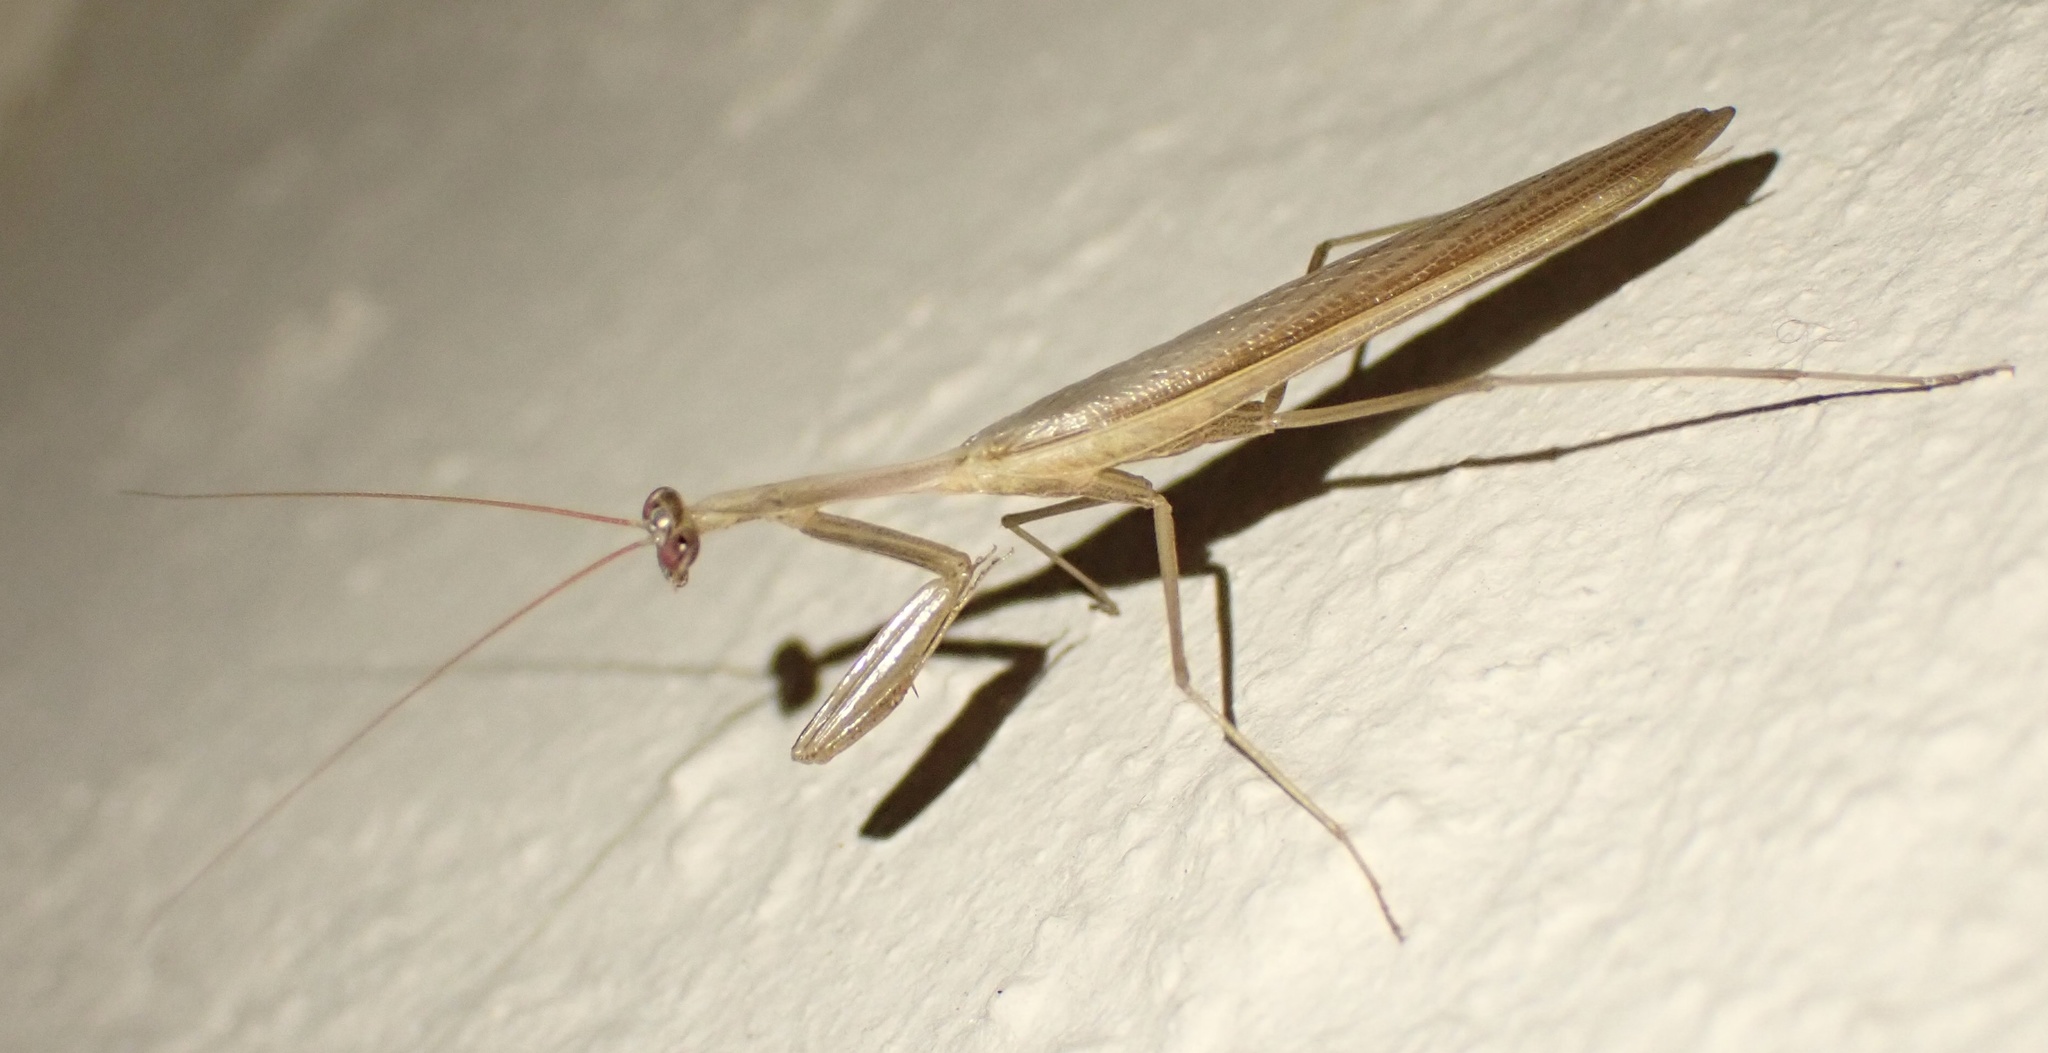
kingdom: Animalia
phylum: Arthropoda
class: Insecta
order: Mantodea
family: Miomantidae
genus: Miomantis
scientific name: Miomantis caffra
